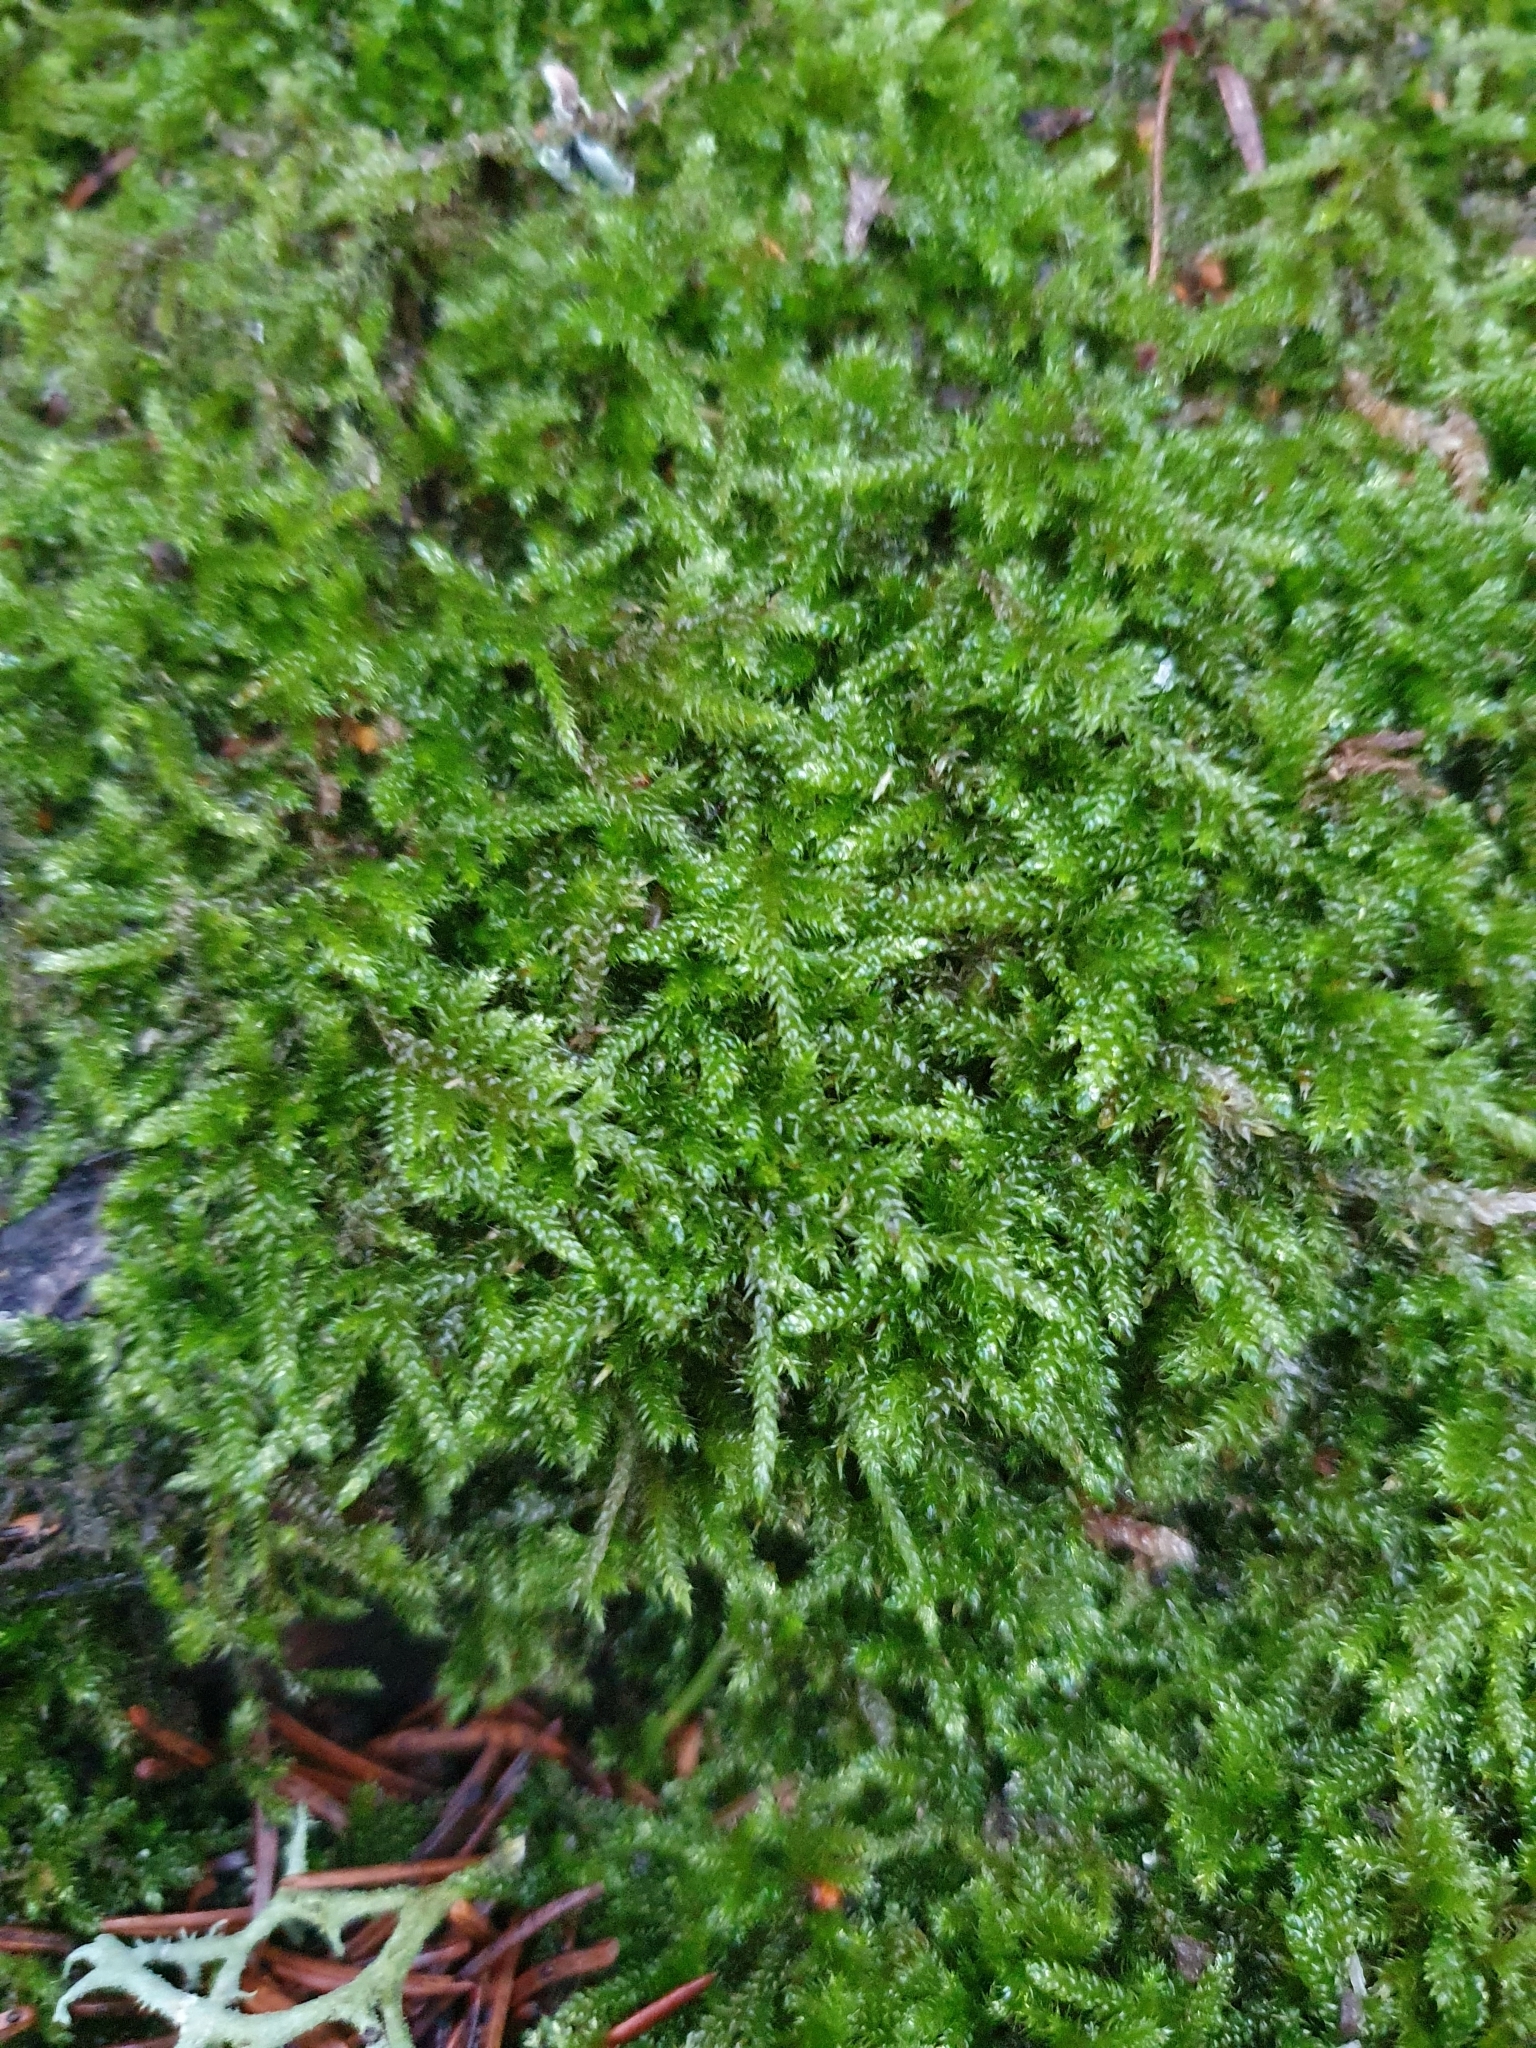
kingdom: Plantae
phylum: Bryophyta
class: Bryopsida
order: Hypnales
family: Hypnaceae
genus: Hypnum
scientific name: Hypnum cupressiforme
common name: Cypress-leaved plait-moss
